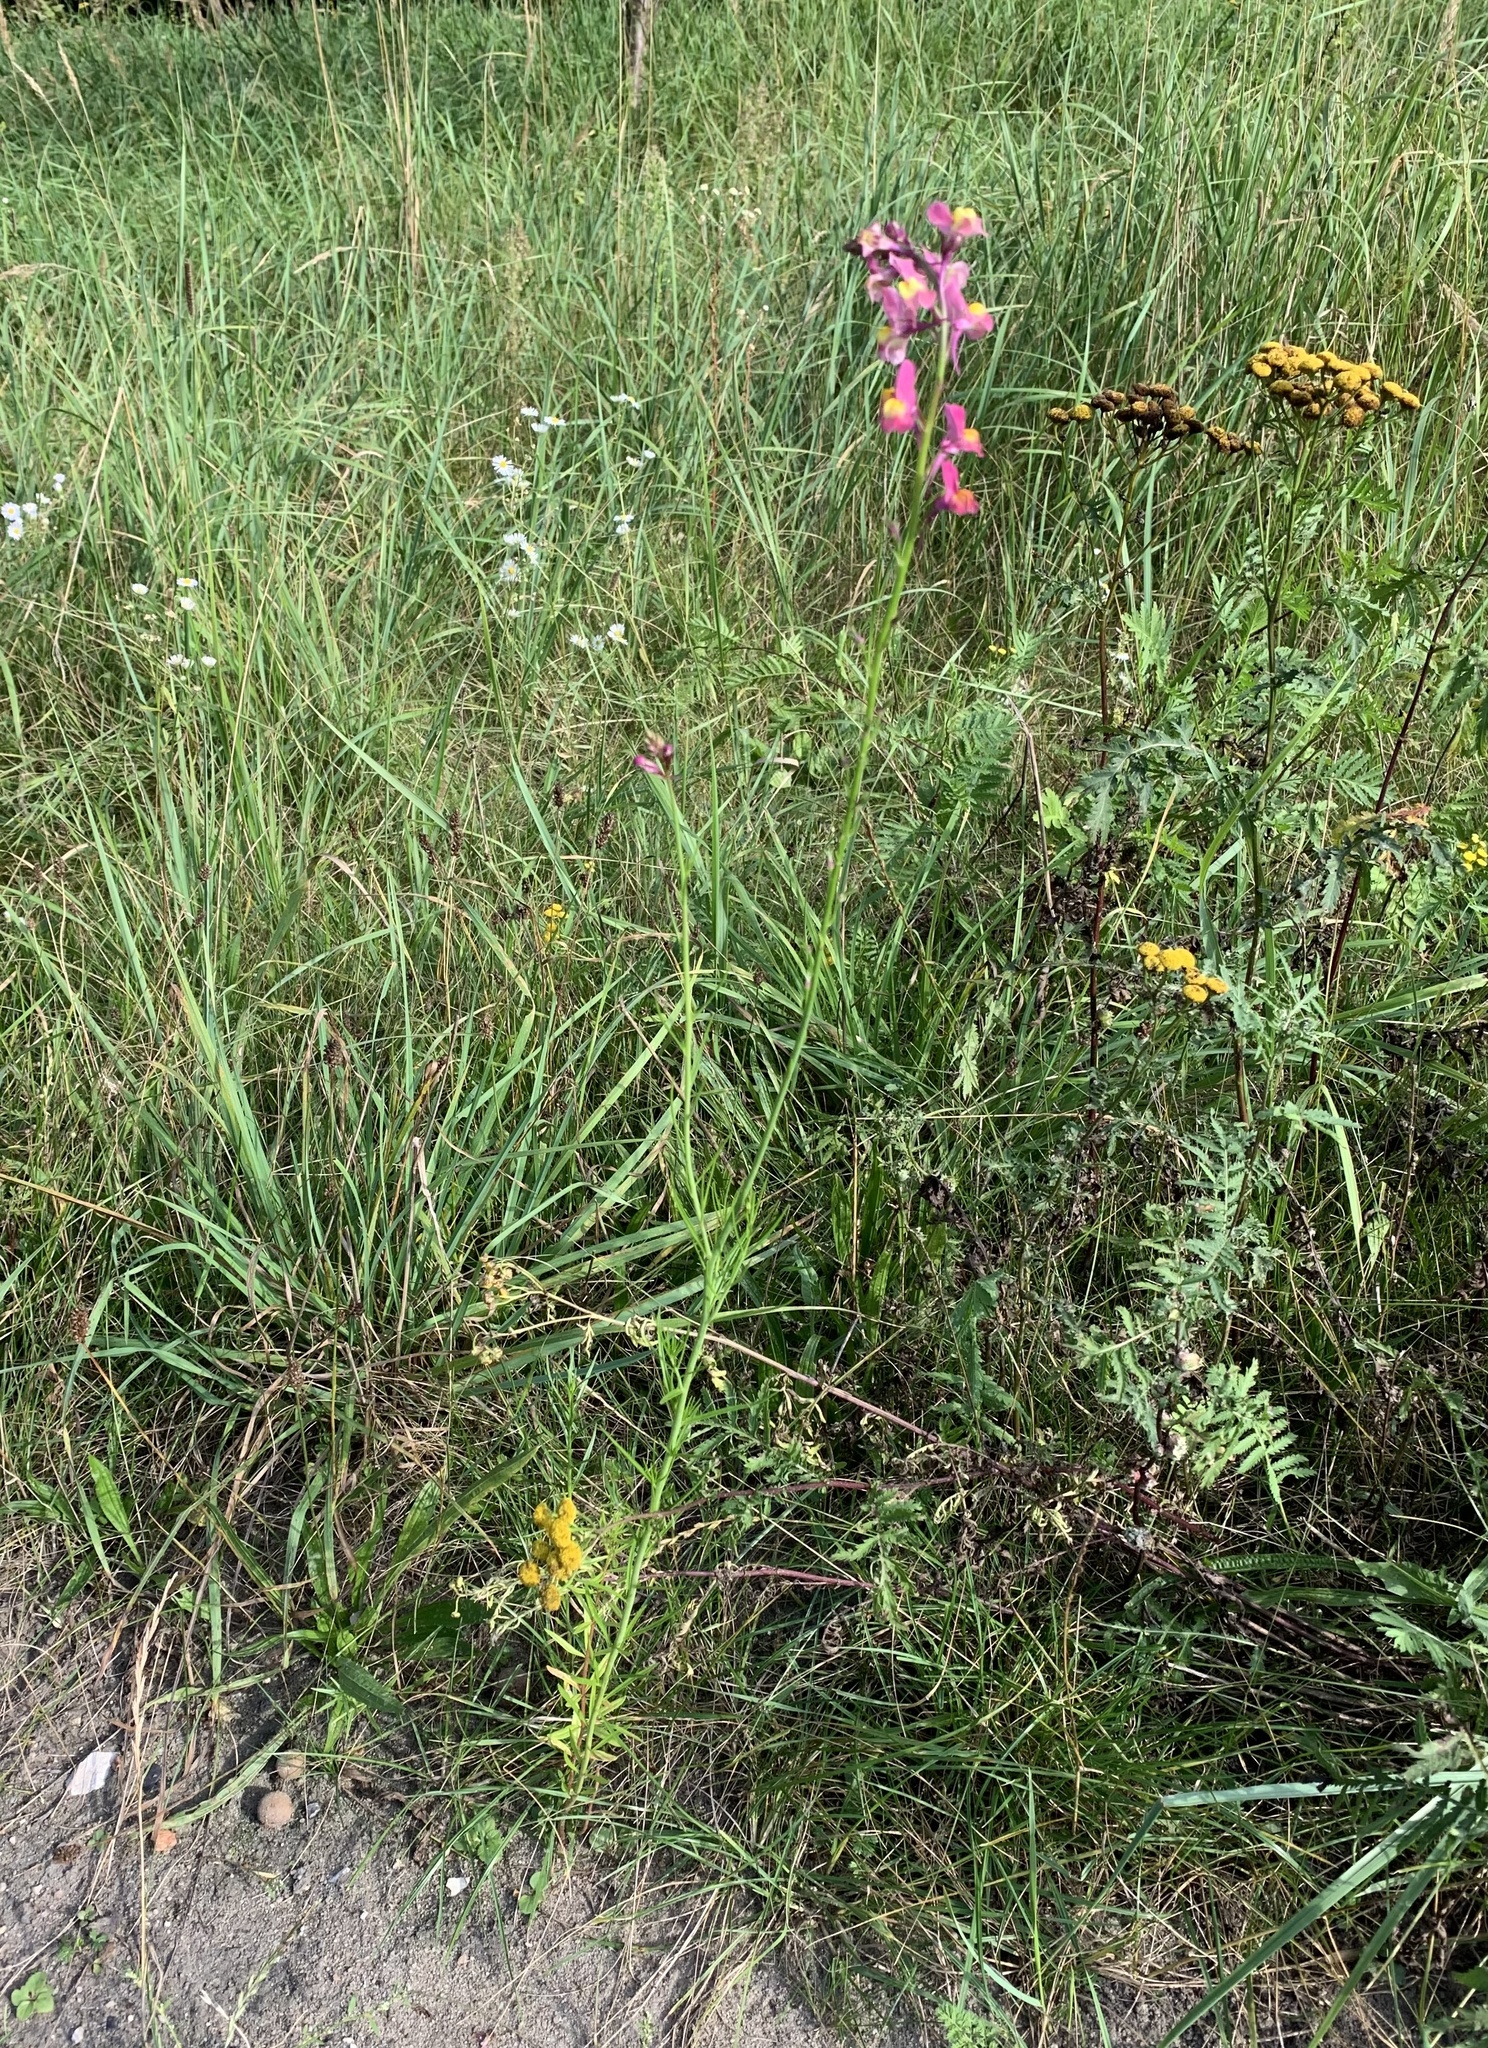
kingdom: Plantae
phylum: Tracheophyta
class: Magnoliopsida
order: Lamiales
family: Plantaginaceae
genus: Linaria
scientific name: Linaria maroccana
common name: Moroccan toadflax
